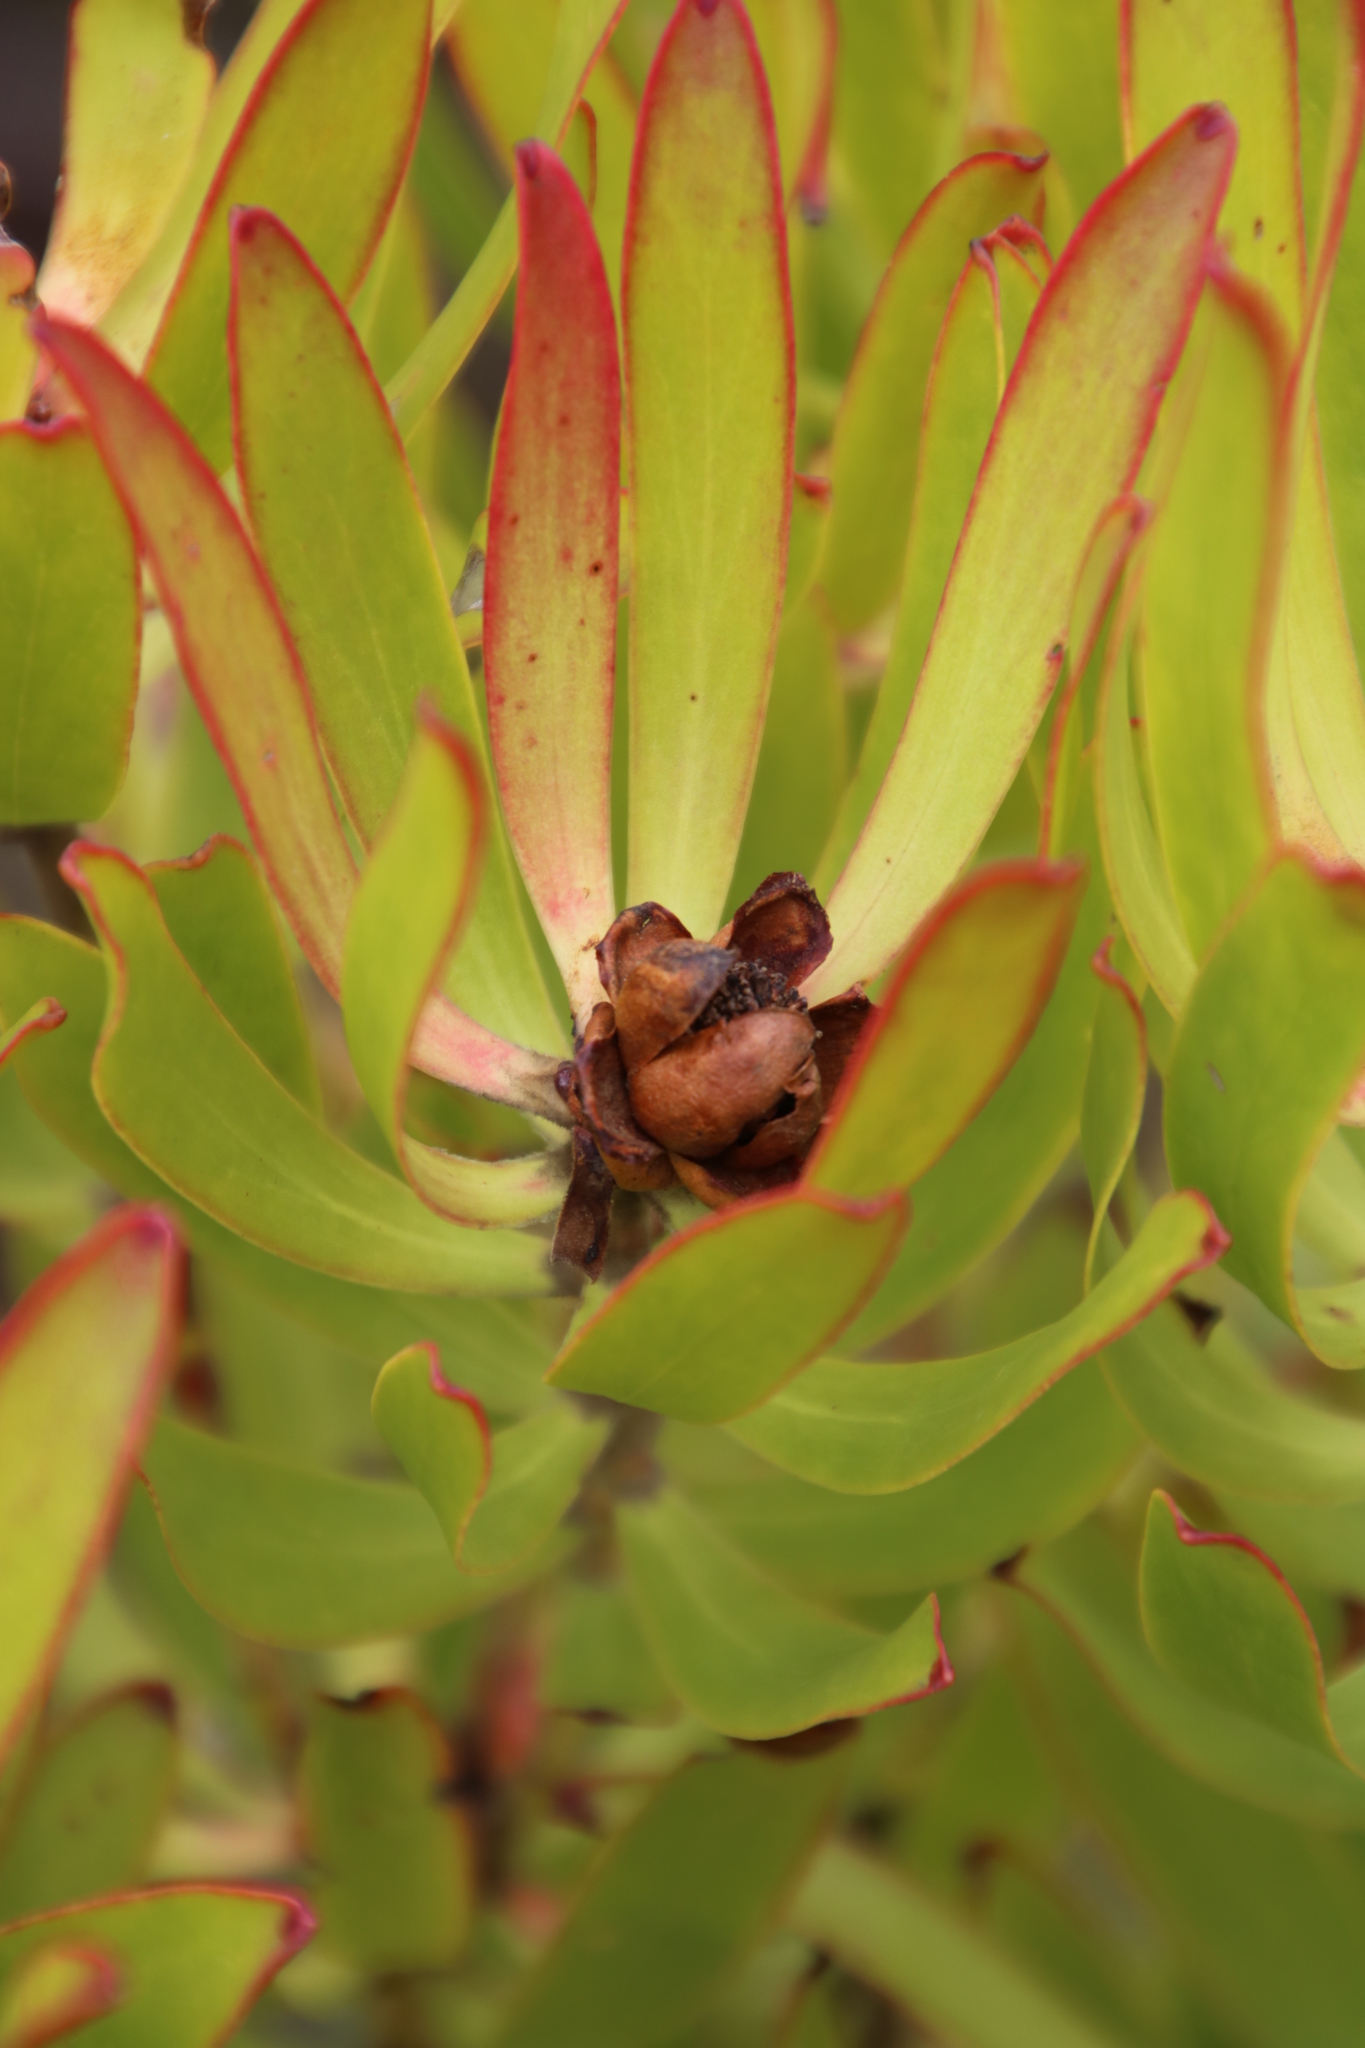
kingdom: Plantae
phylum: Tracheophyta
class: Magnoliopsida
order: Proteales
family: Proteaceae
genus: Leucadendron
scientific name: Leucadendron microcephalum
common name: Oilbract conebush
